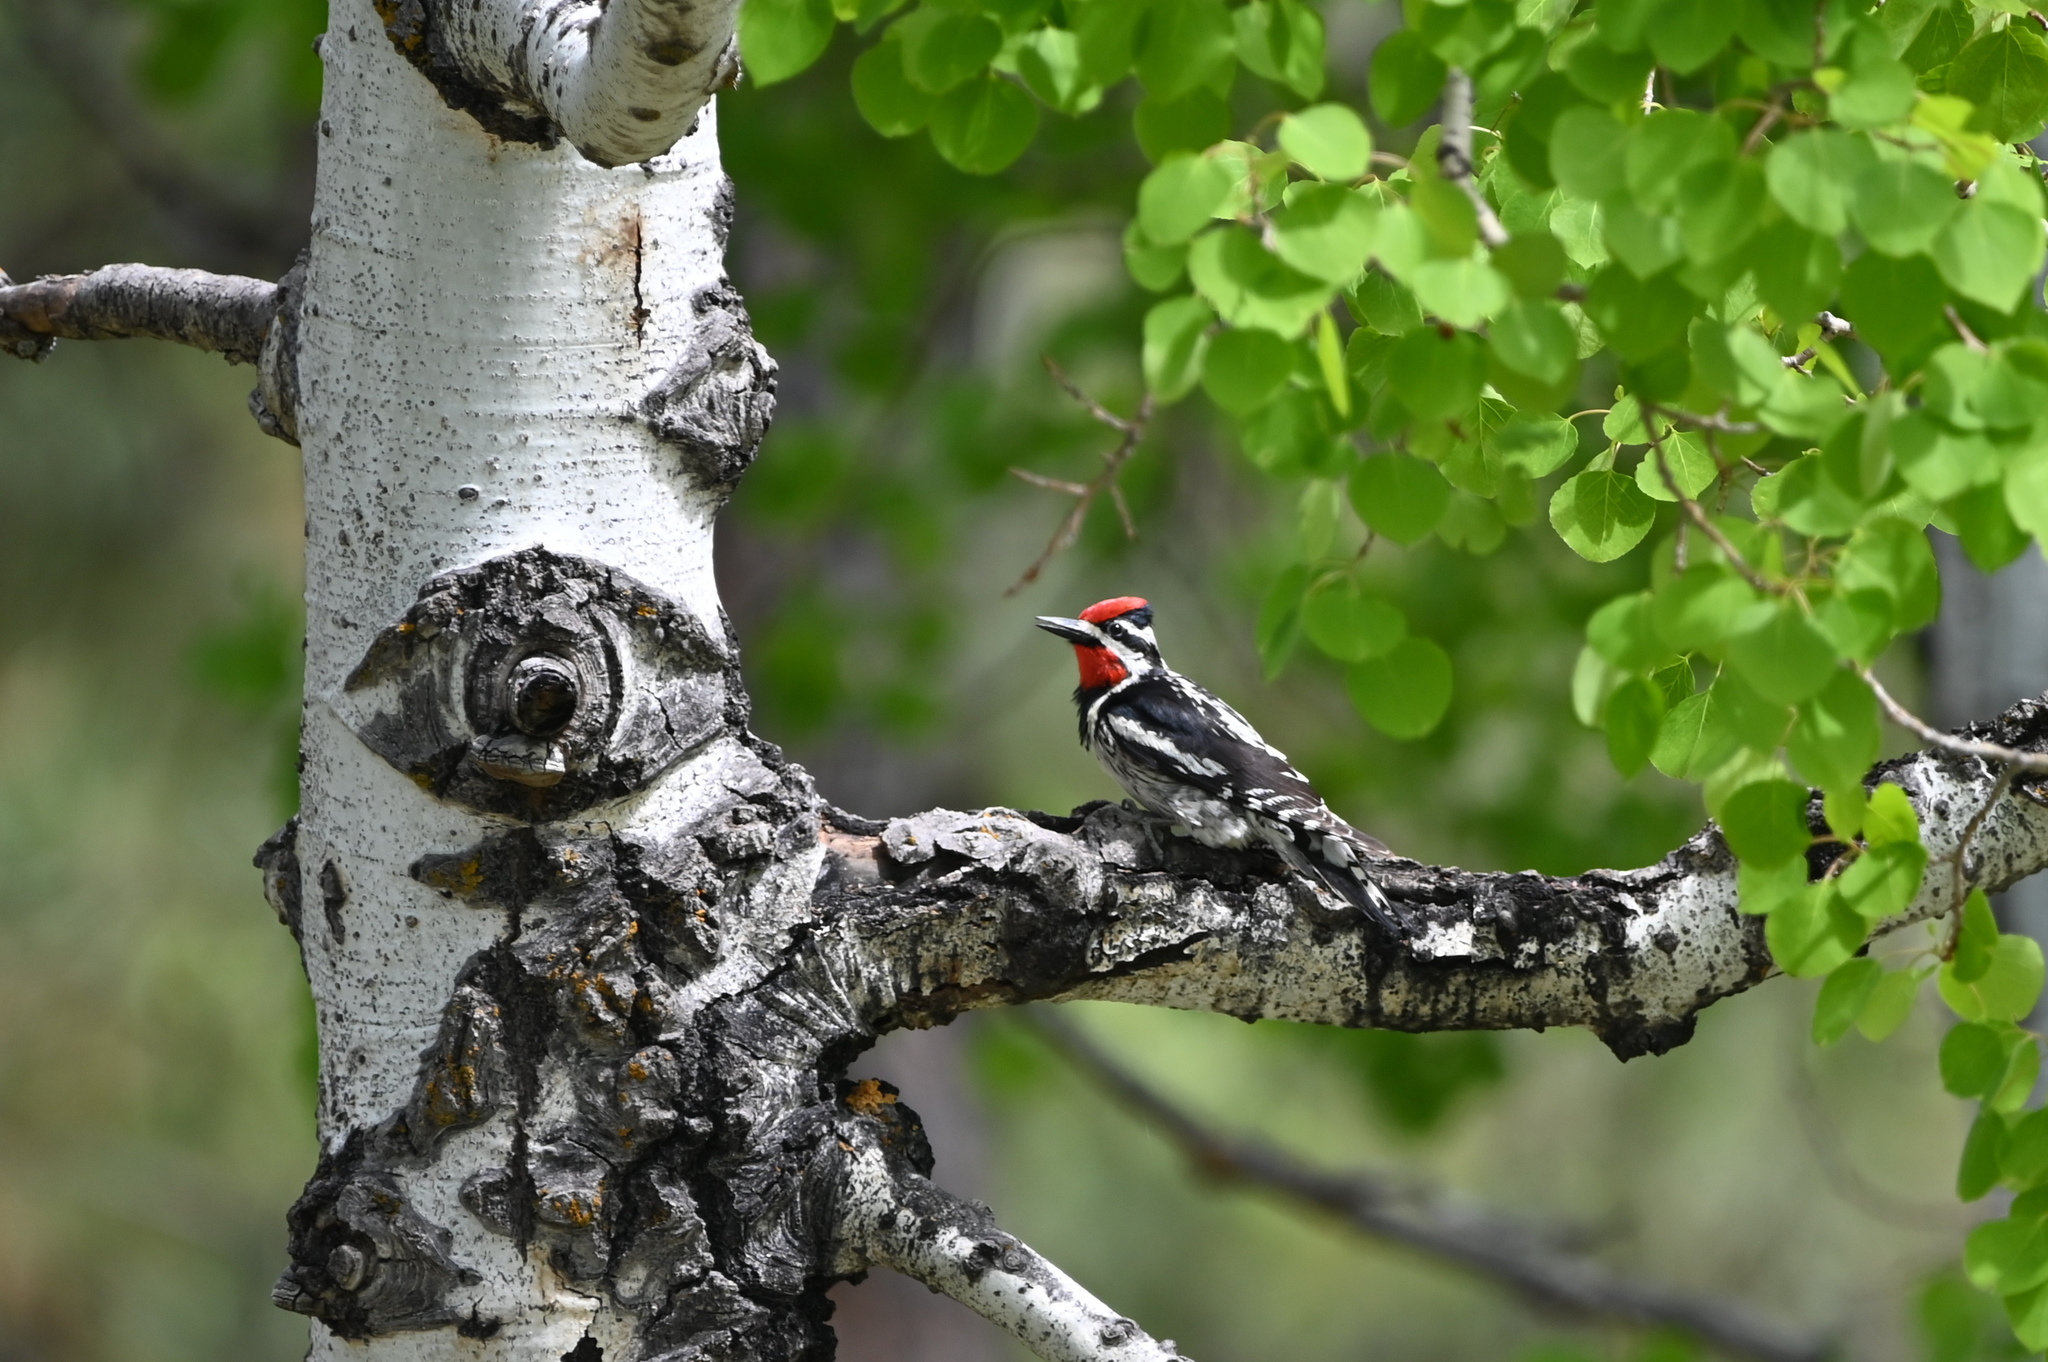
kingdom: Animalia
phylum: Chordata
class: Aves
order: Piciformes
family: Picidae
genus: Sphyrapicus
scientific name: Sphyrapicus nuchalis
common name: Red-naped sapsucker
